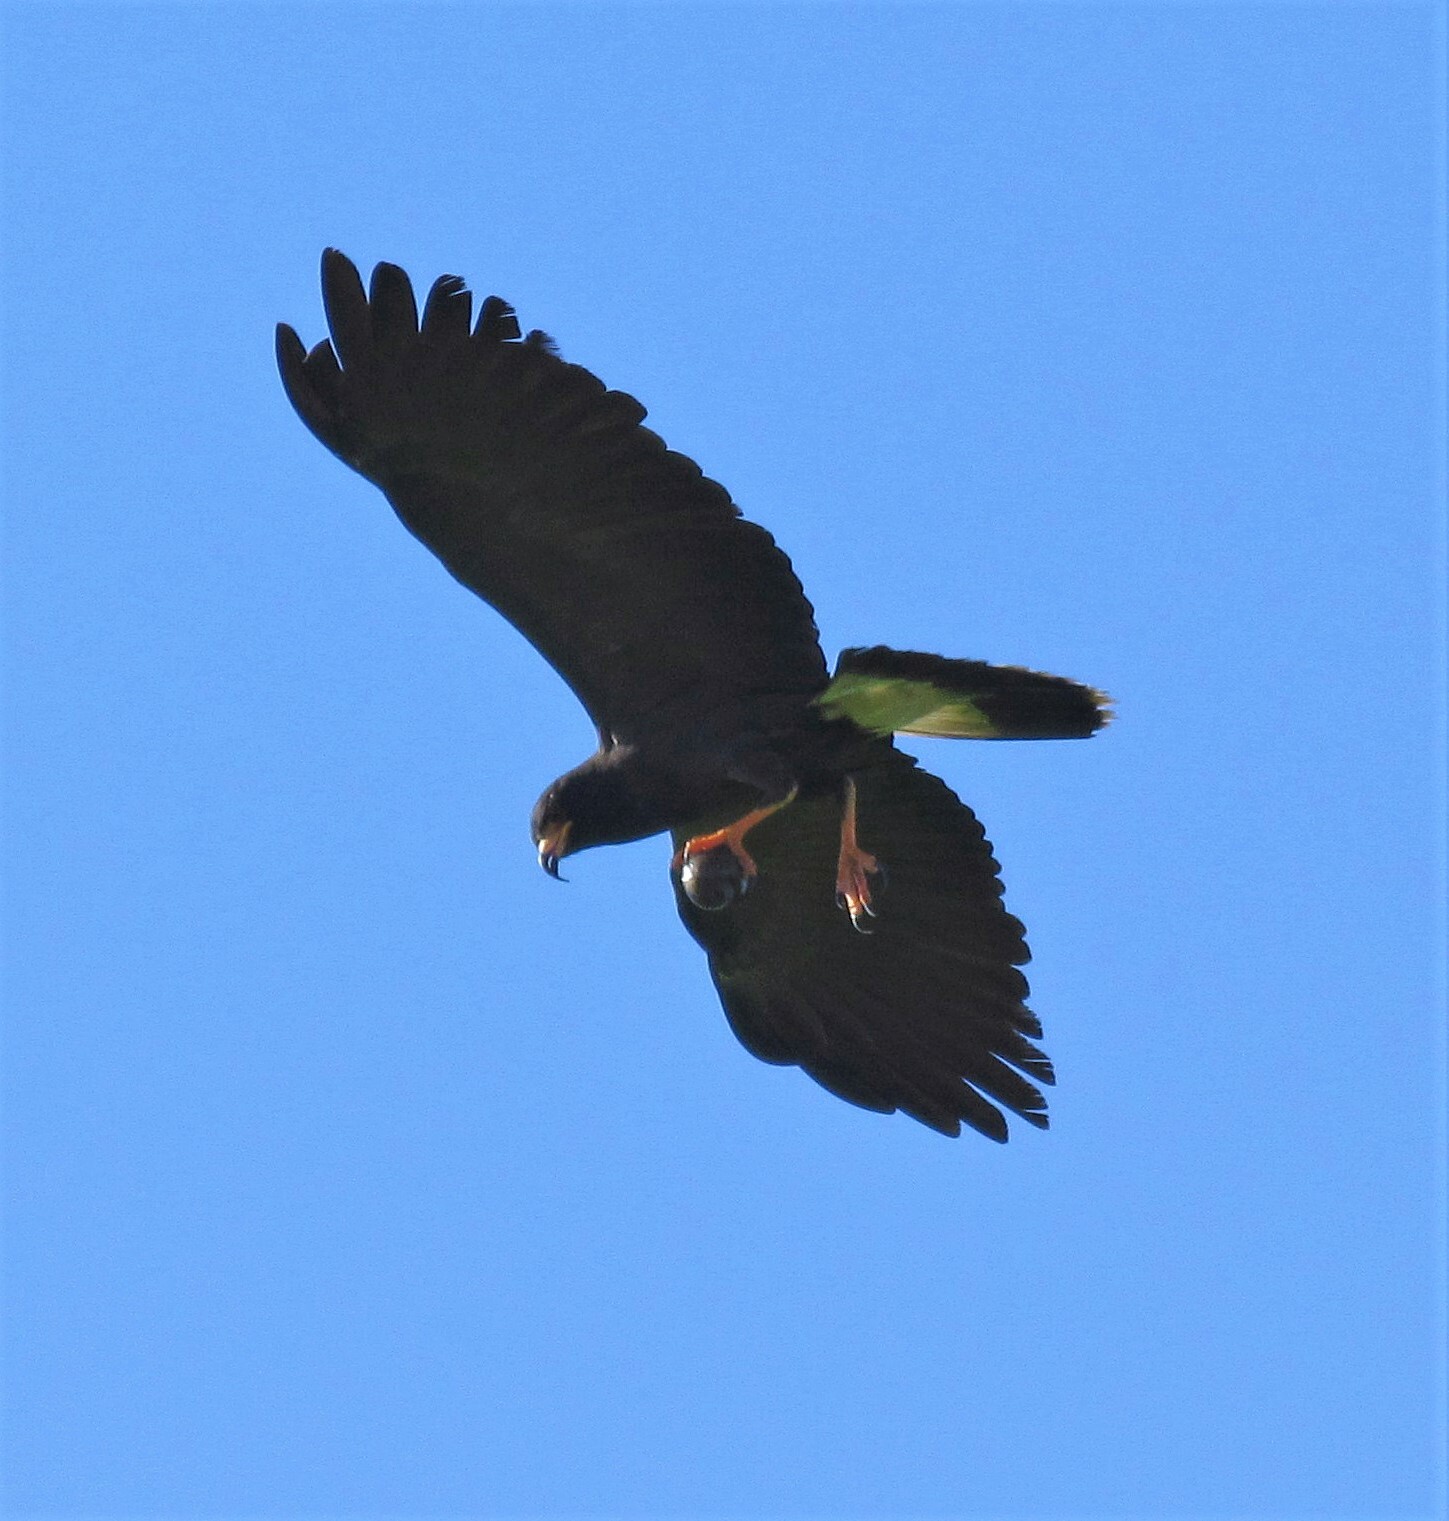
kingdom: Animalia
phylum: Chordata
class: Aves
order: Accipitriformes
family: Accipitridae
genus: Rostrhamus
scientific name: Rostrhamus sociabilis
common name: Snail kite
